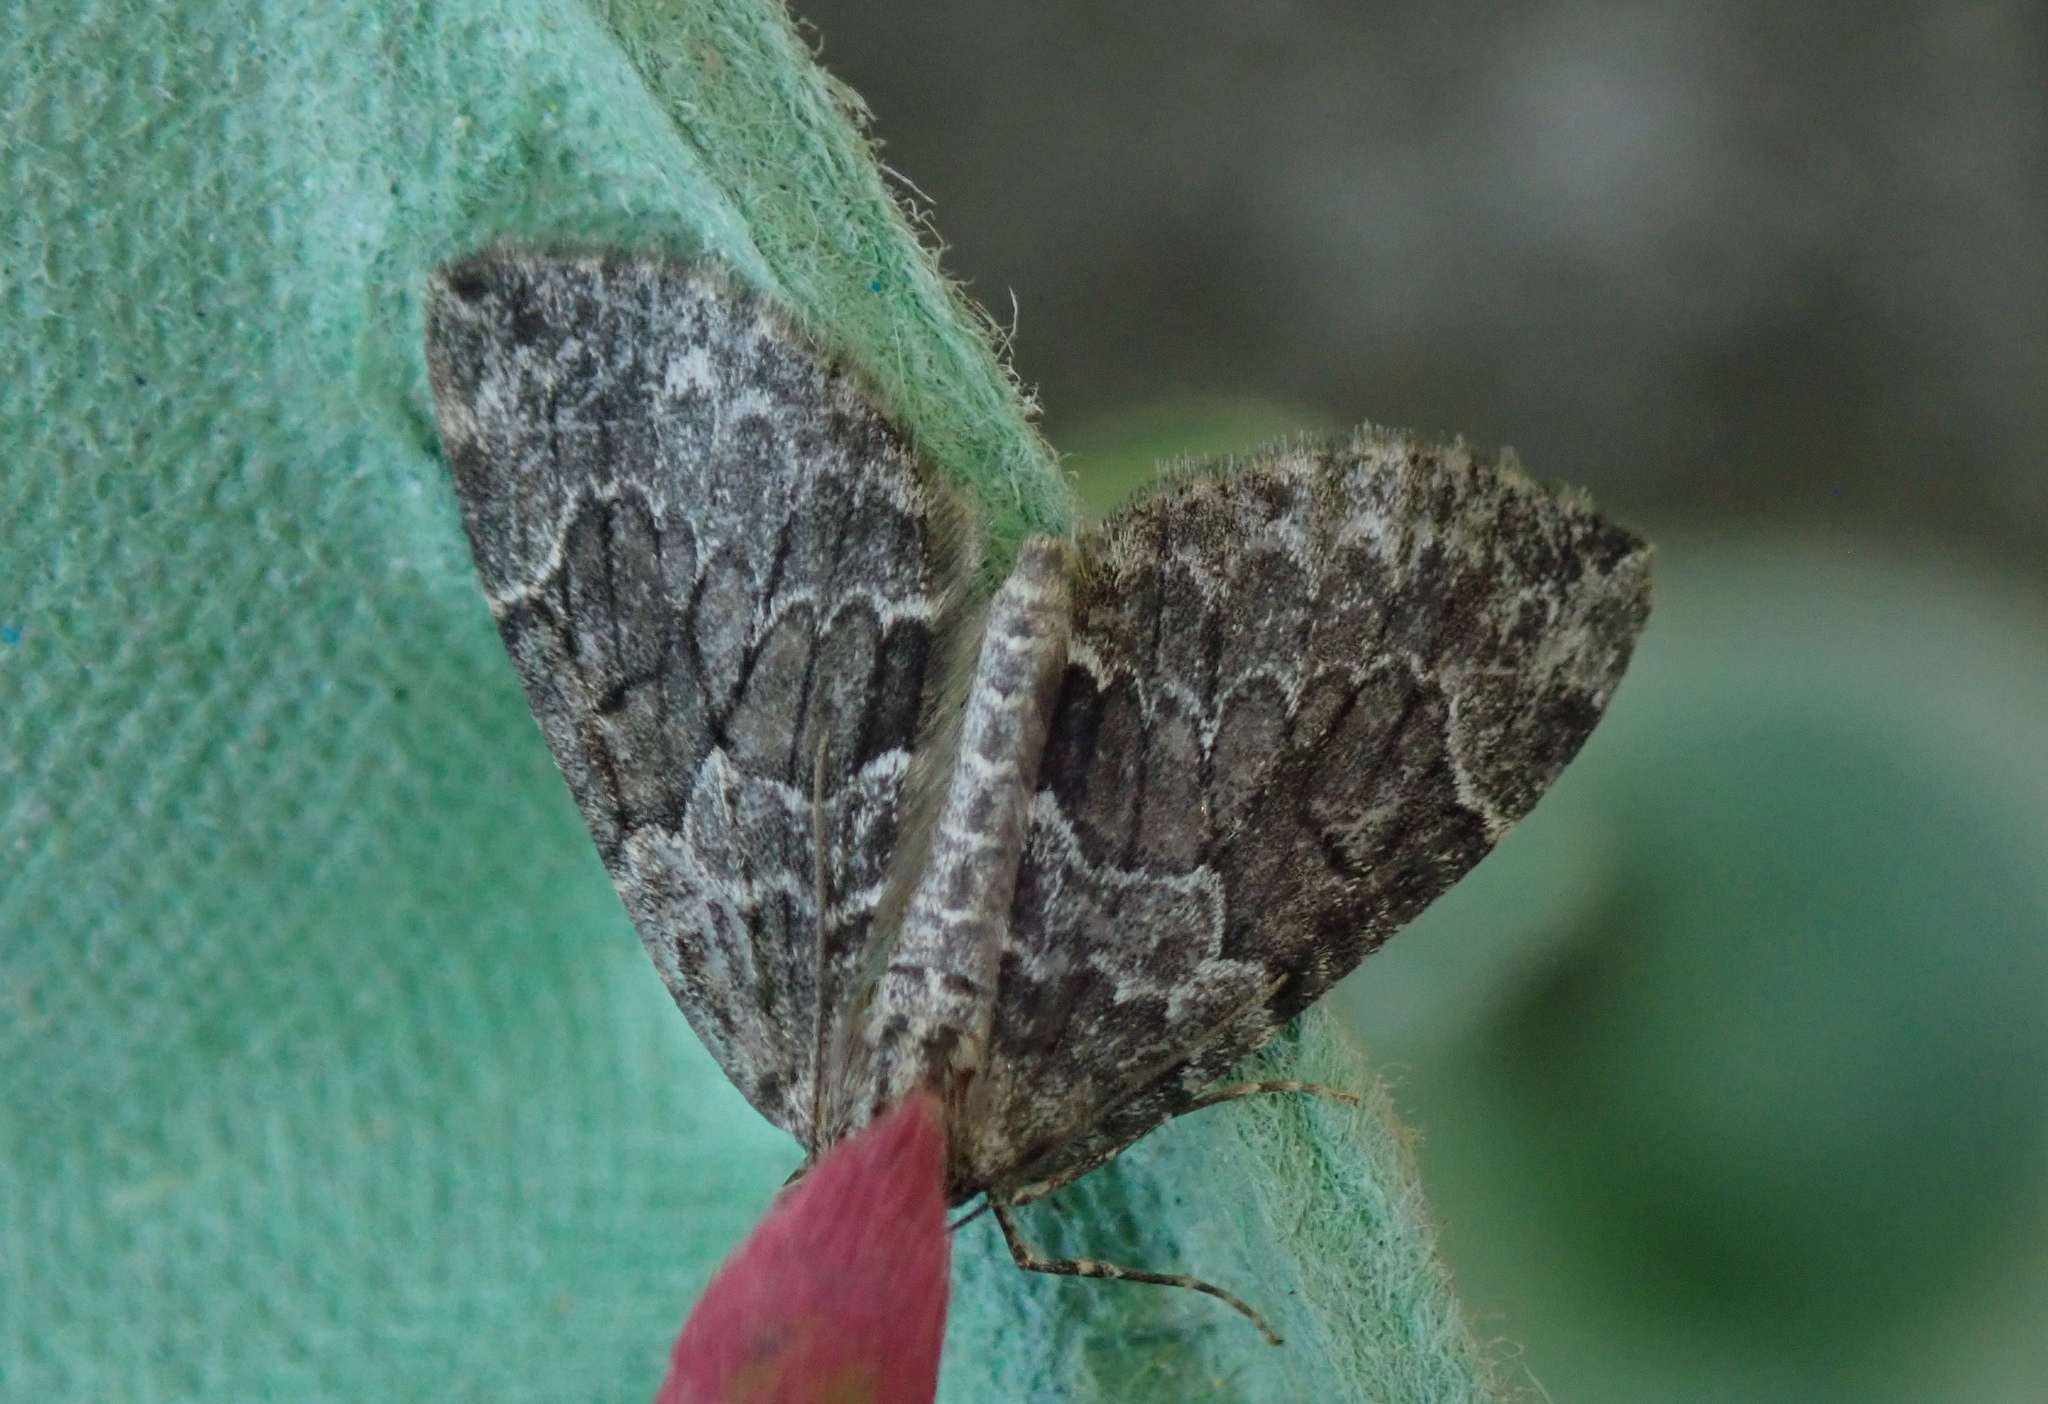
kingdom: Animalia
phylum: Arthropoda
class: Insecta
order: Lepidoptera
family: Geometridae
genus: Thera
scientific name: Thera britannica
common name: Spruce carpet
